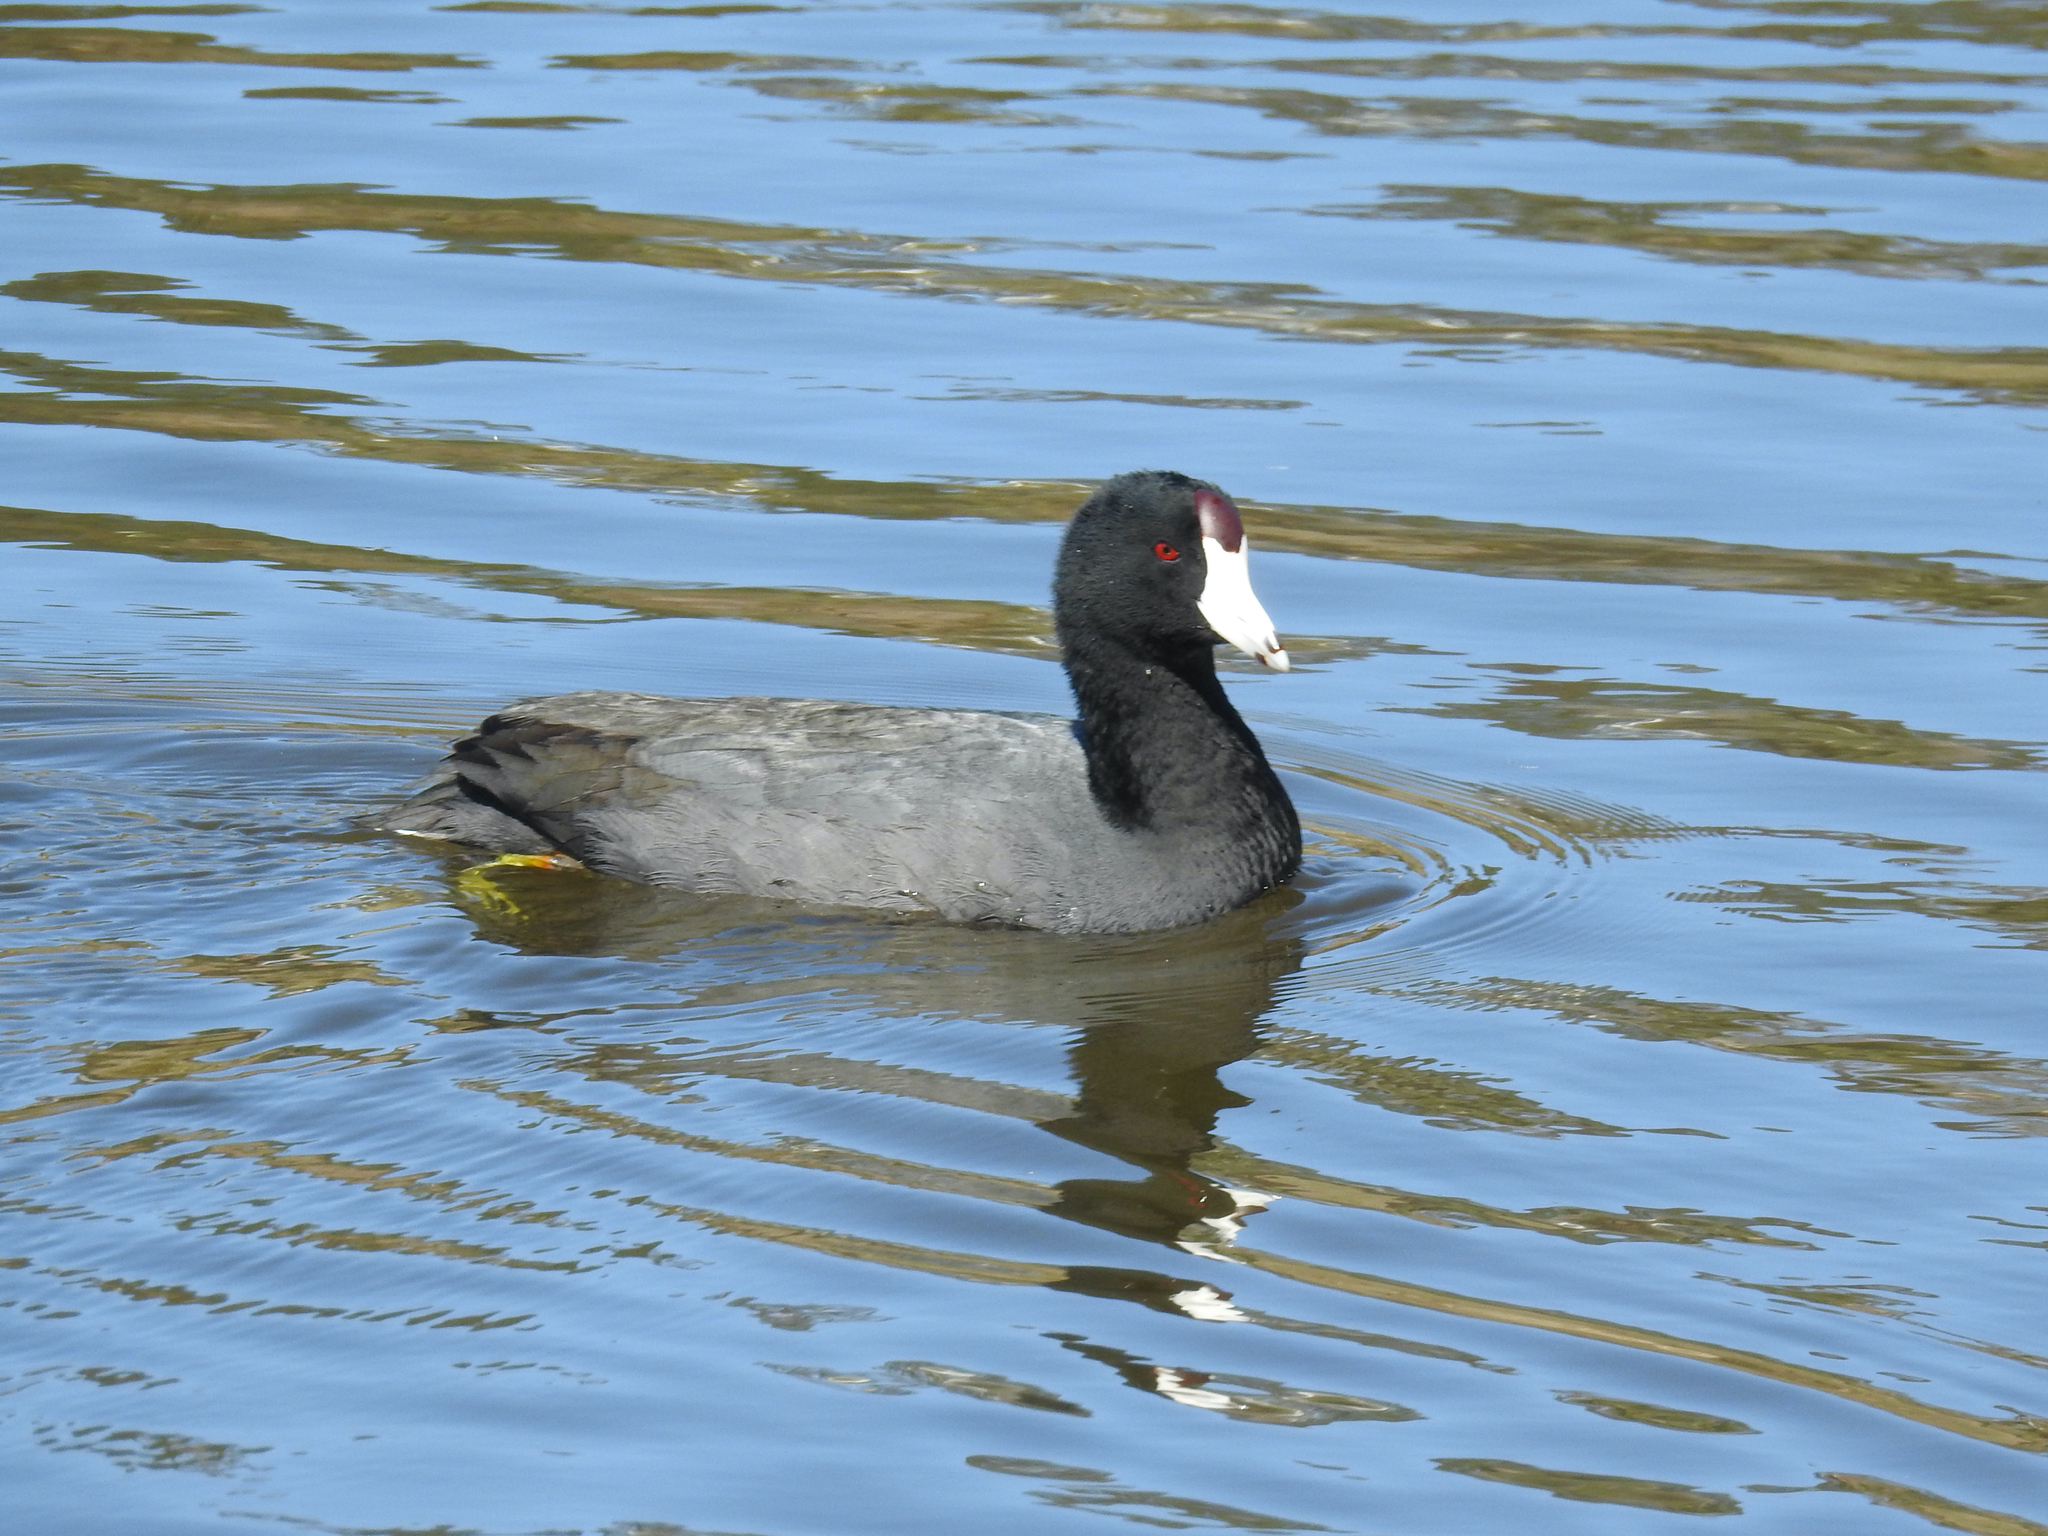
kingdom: Animalia
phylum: Chordata
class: Aves
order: Gruiformes
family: Rallidae
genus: Fulica
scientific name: Fulica americana
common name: American coot
